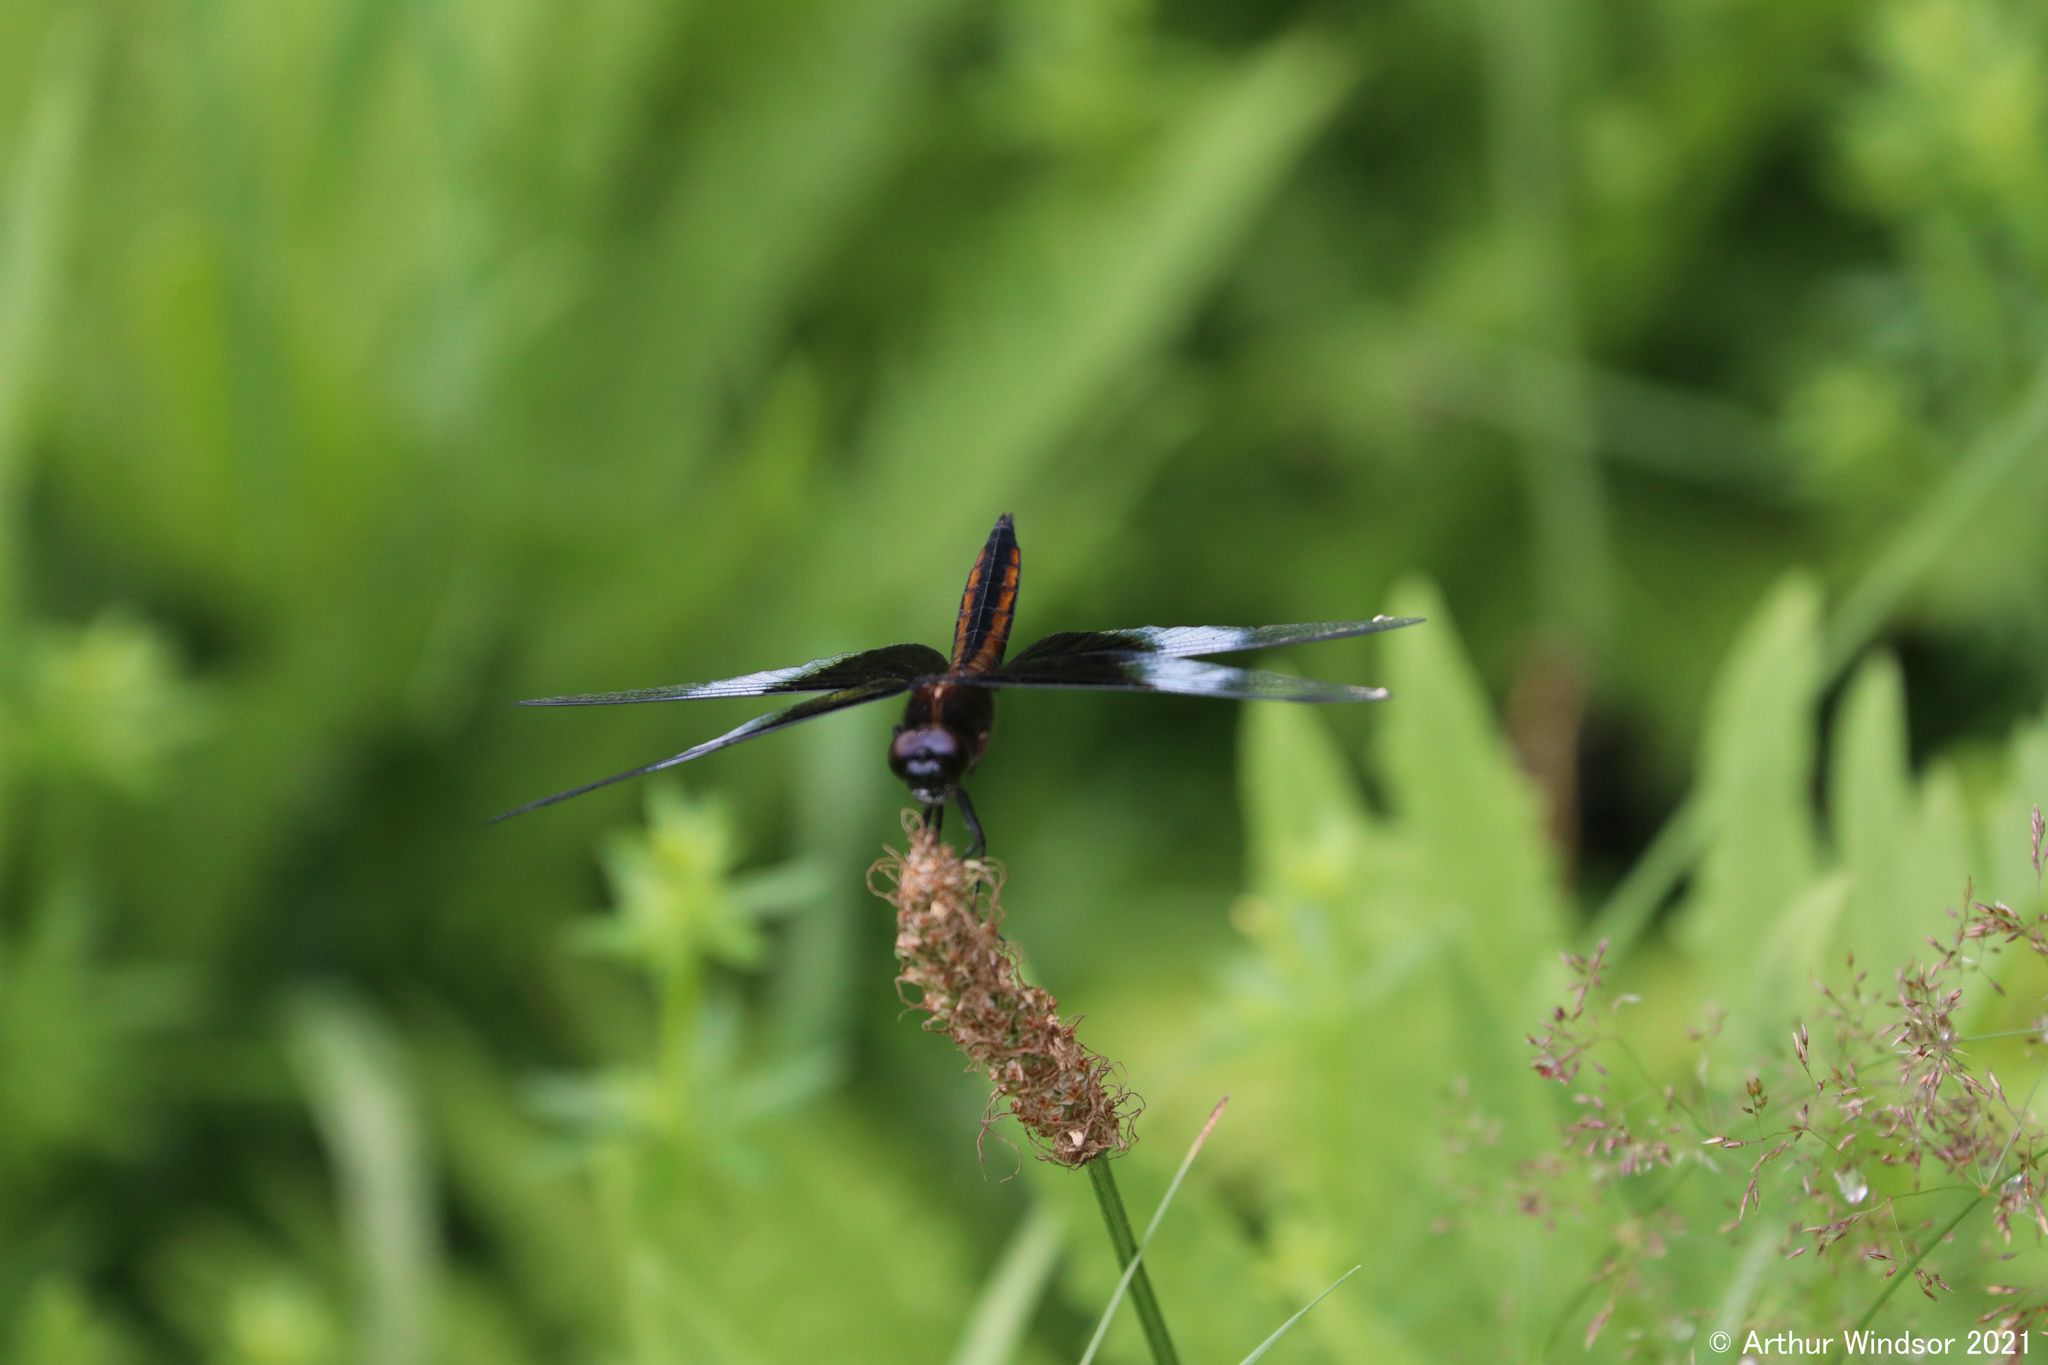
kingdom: Animalia
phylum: Arthropoda
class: Insecta
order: Odonata
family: Libellulidae
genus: Libellula
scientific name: Libellula luctuosa
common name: Widow skimmer
